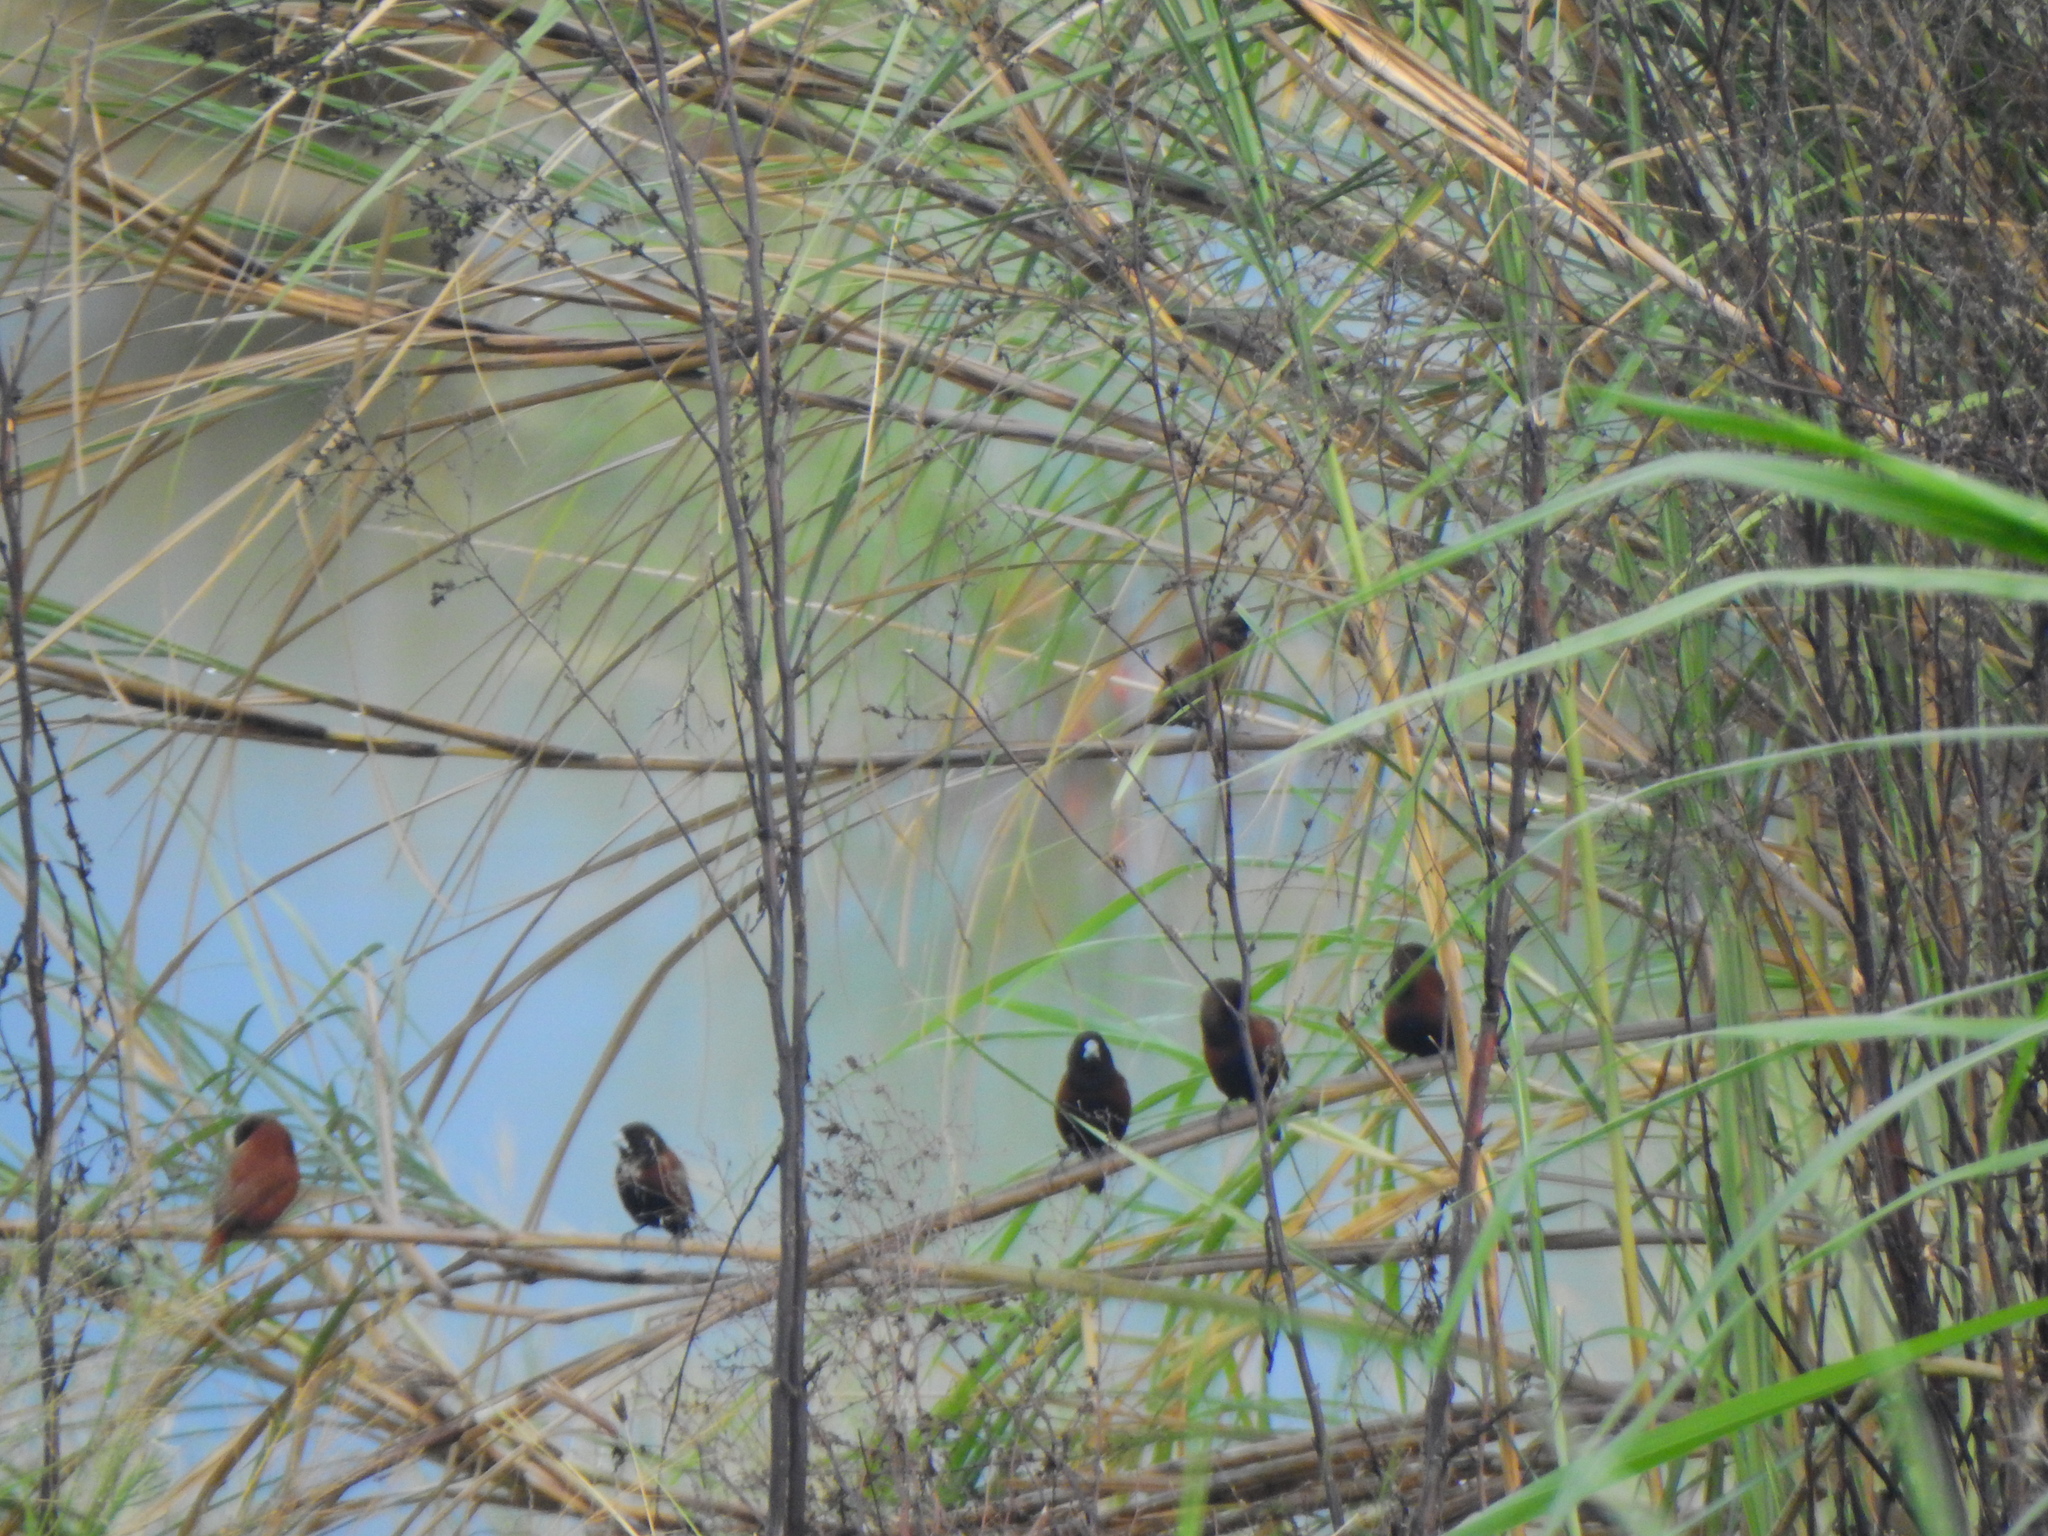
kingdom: Animalia
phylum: Chordata
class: Aves
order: Passeriformes
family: Estrildidae
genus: Lonchura
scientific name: Lonchura atricapilla
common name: Chestnut munia
